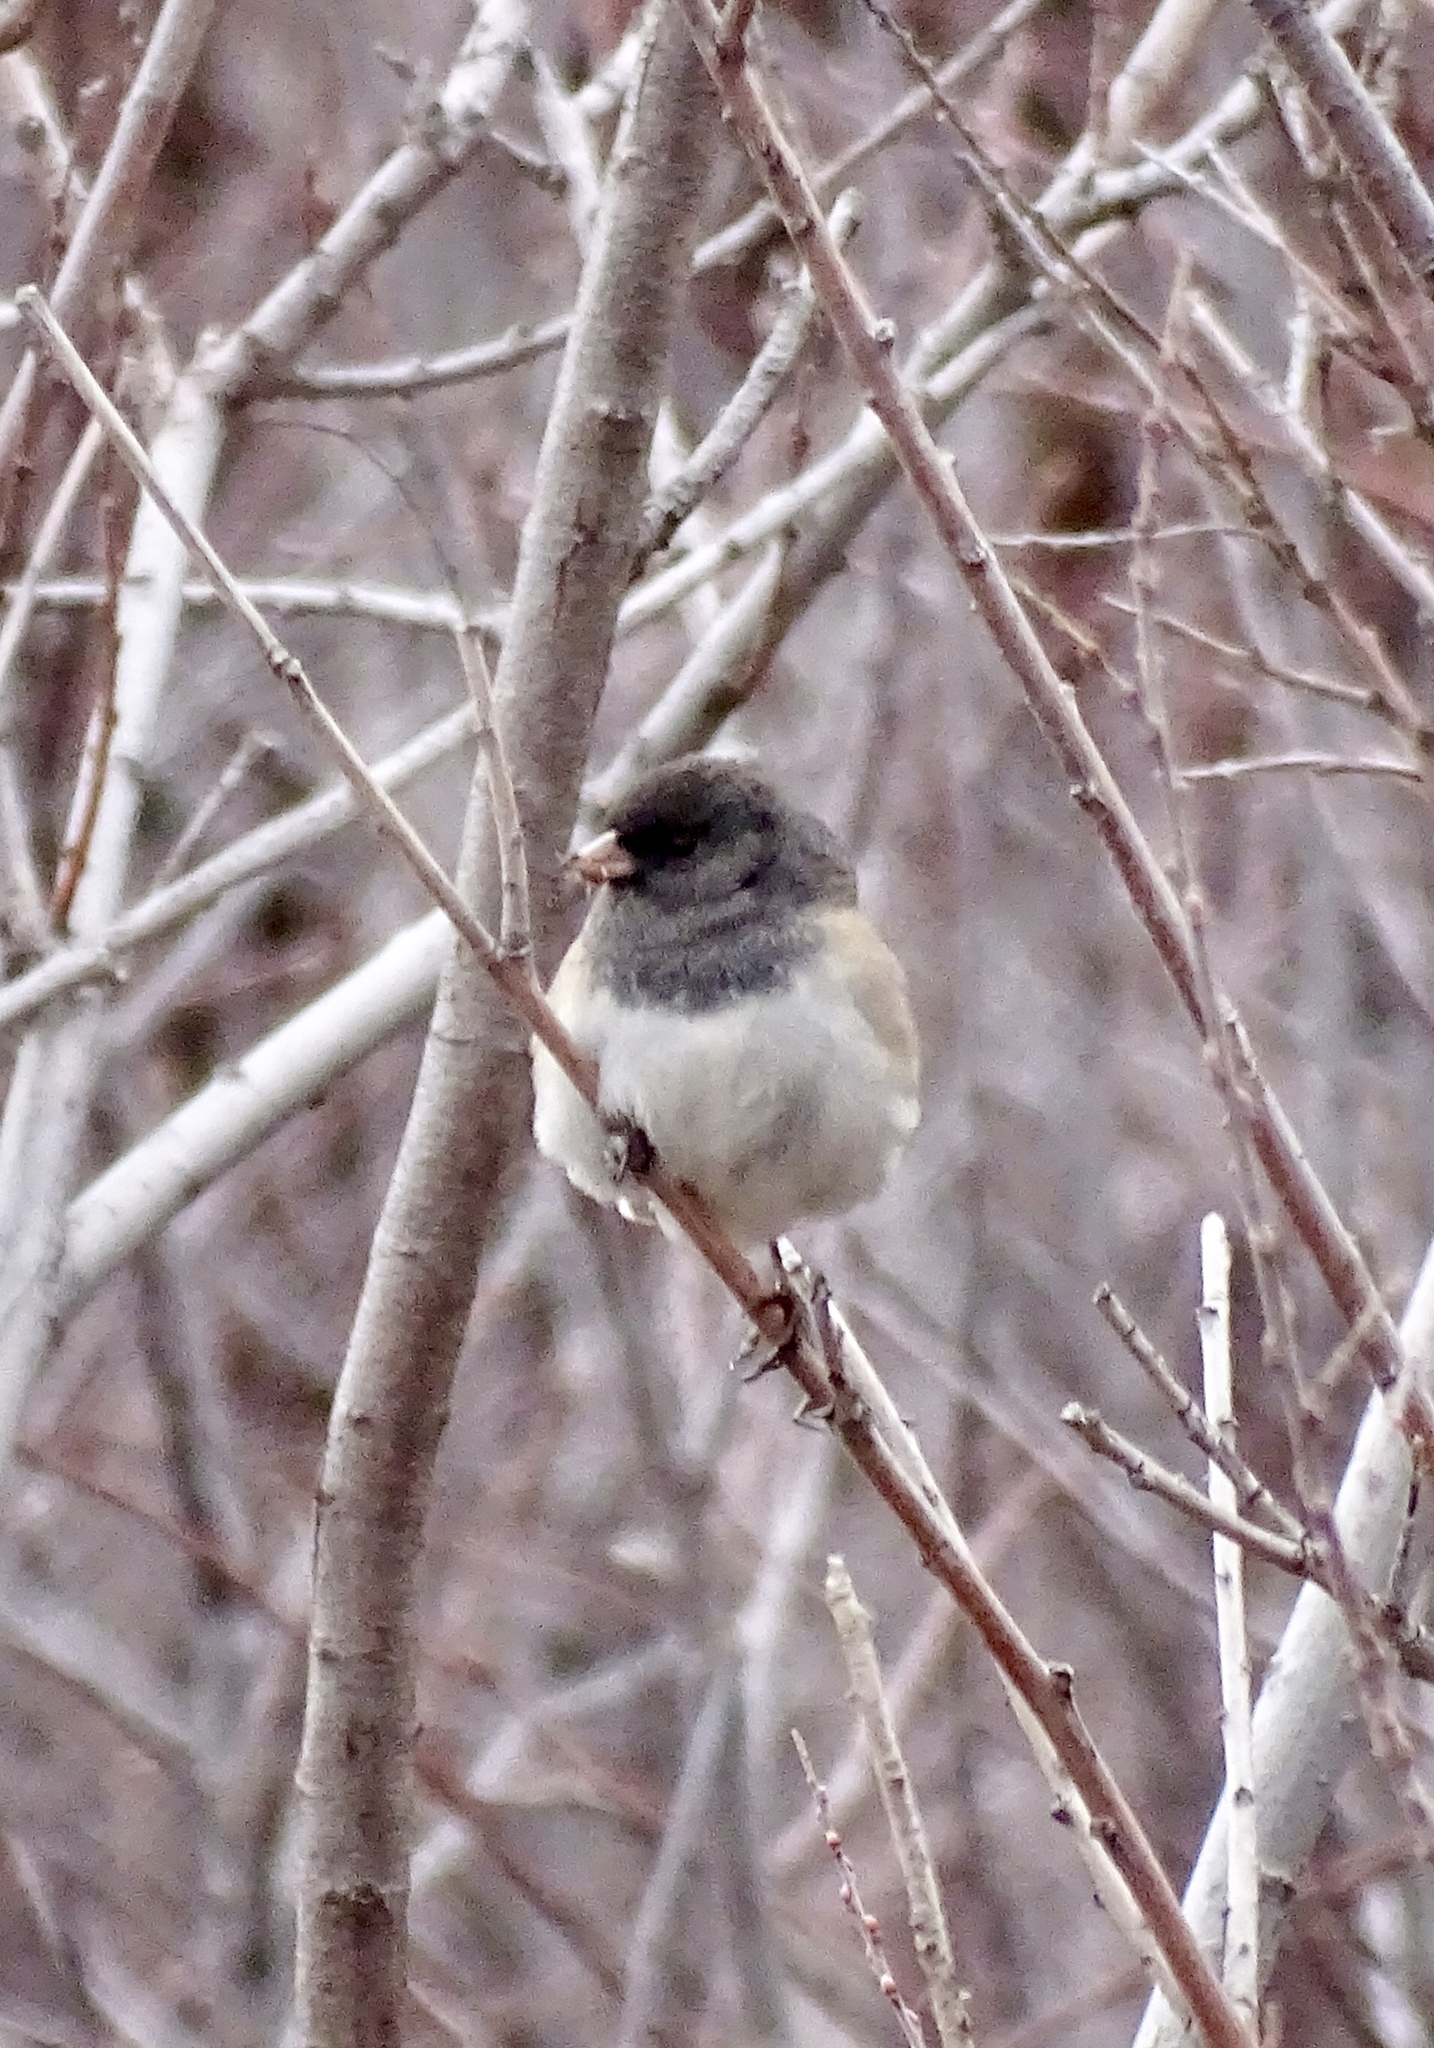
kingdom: Animalia
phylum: Chordata
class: Aves
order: Passeriformes
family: Passerellidae
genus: Junco
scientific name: Junco hyemalis
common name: Dark-eyed junco
